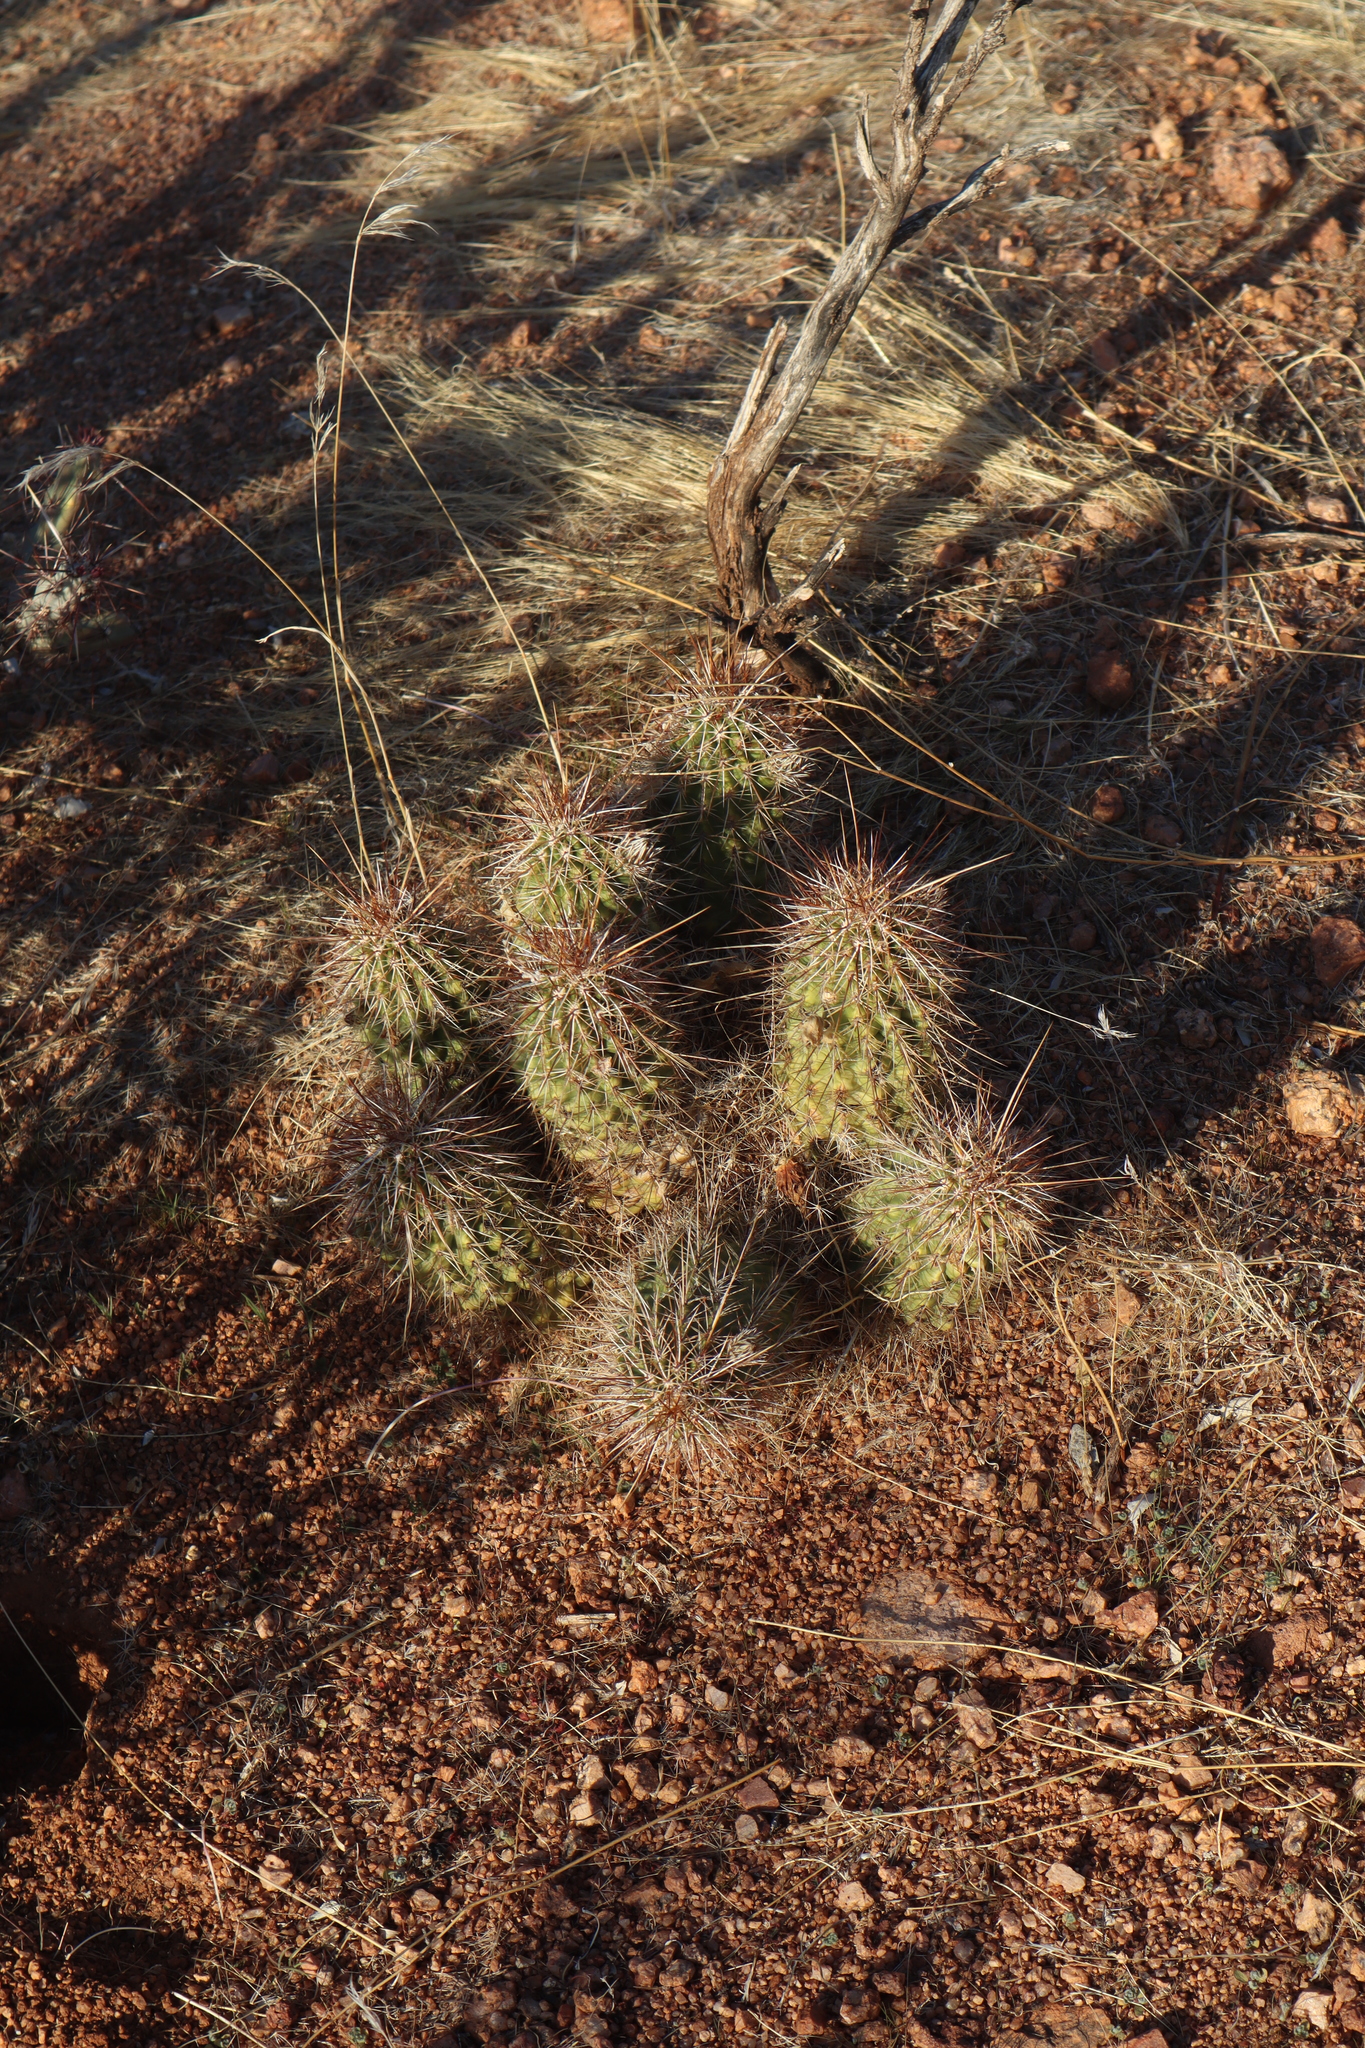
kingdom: Plantae
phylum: Tracheophyta
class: Magnoliopsida
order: Caryophyllales
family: Cactaceae
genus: Echinocereus
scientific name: Echinocereus fasciculatus
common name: Bundle hedgehog
